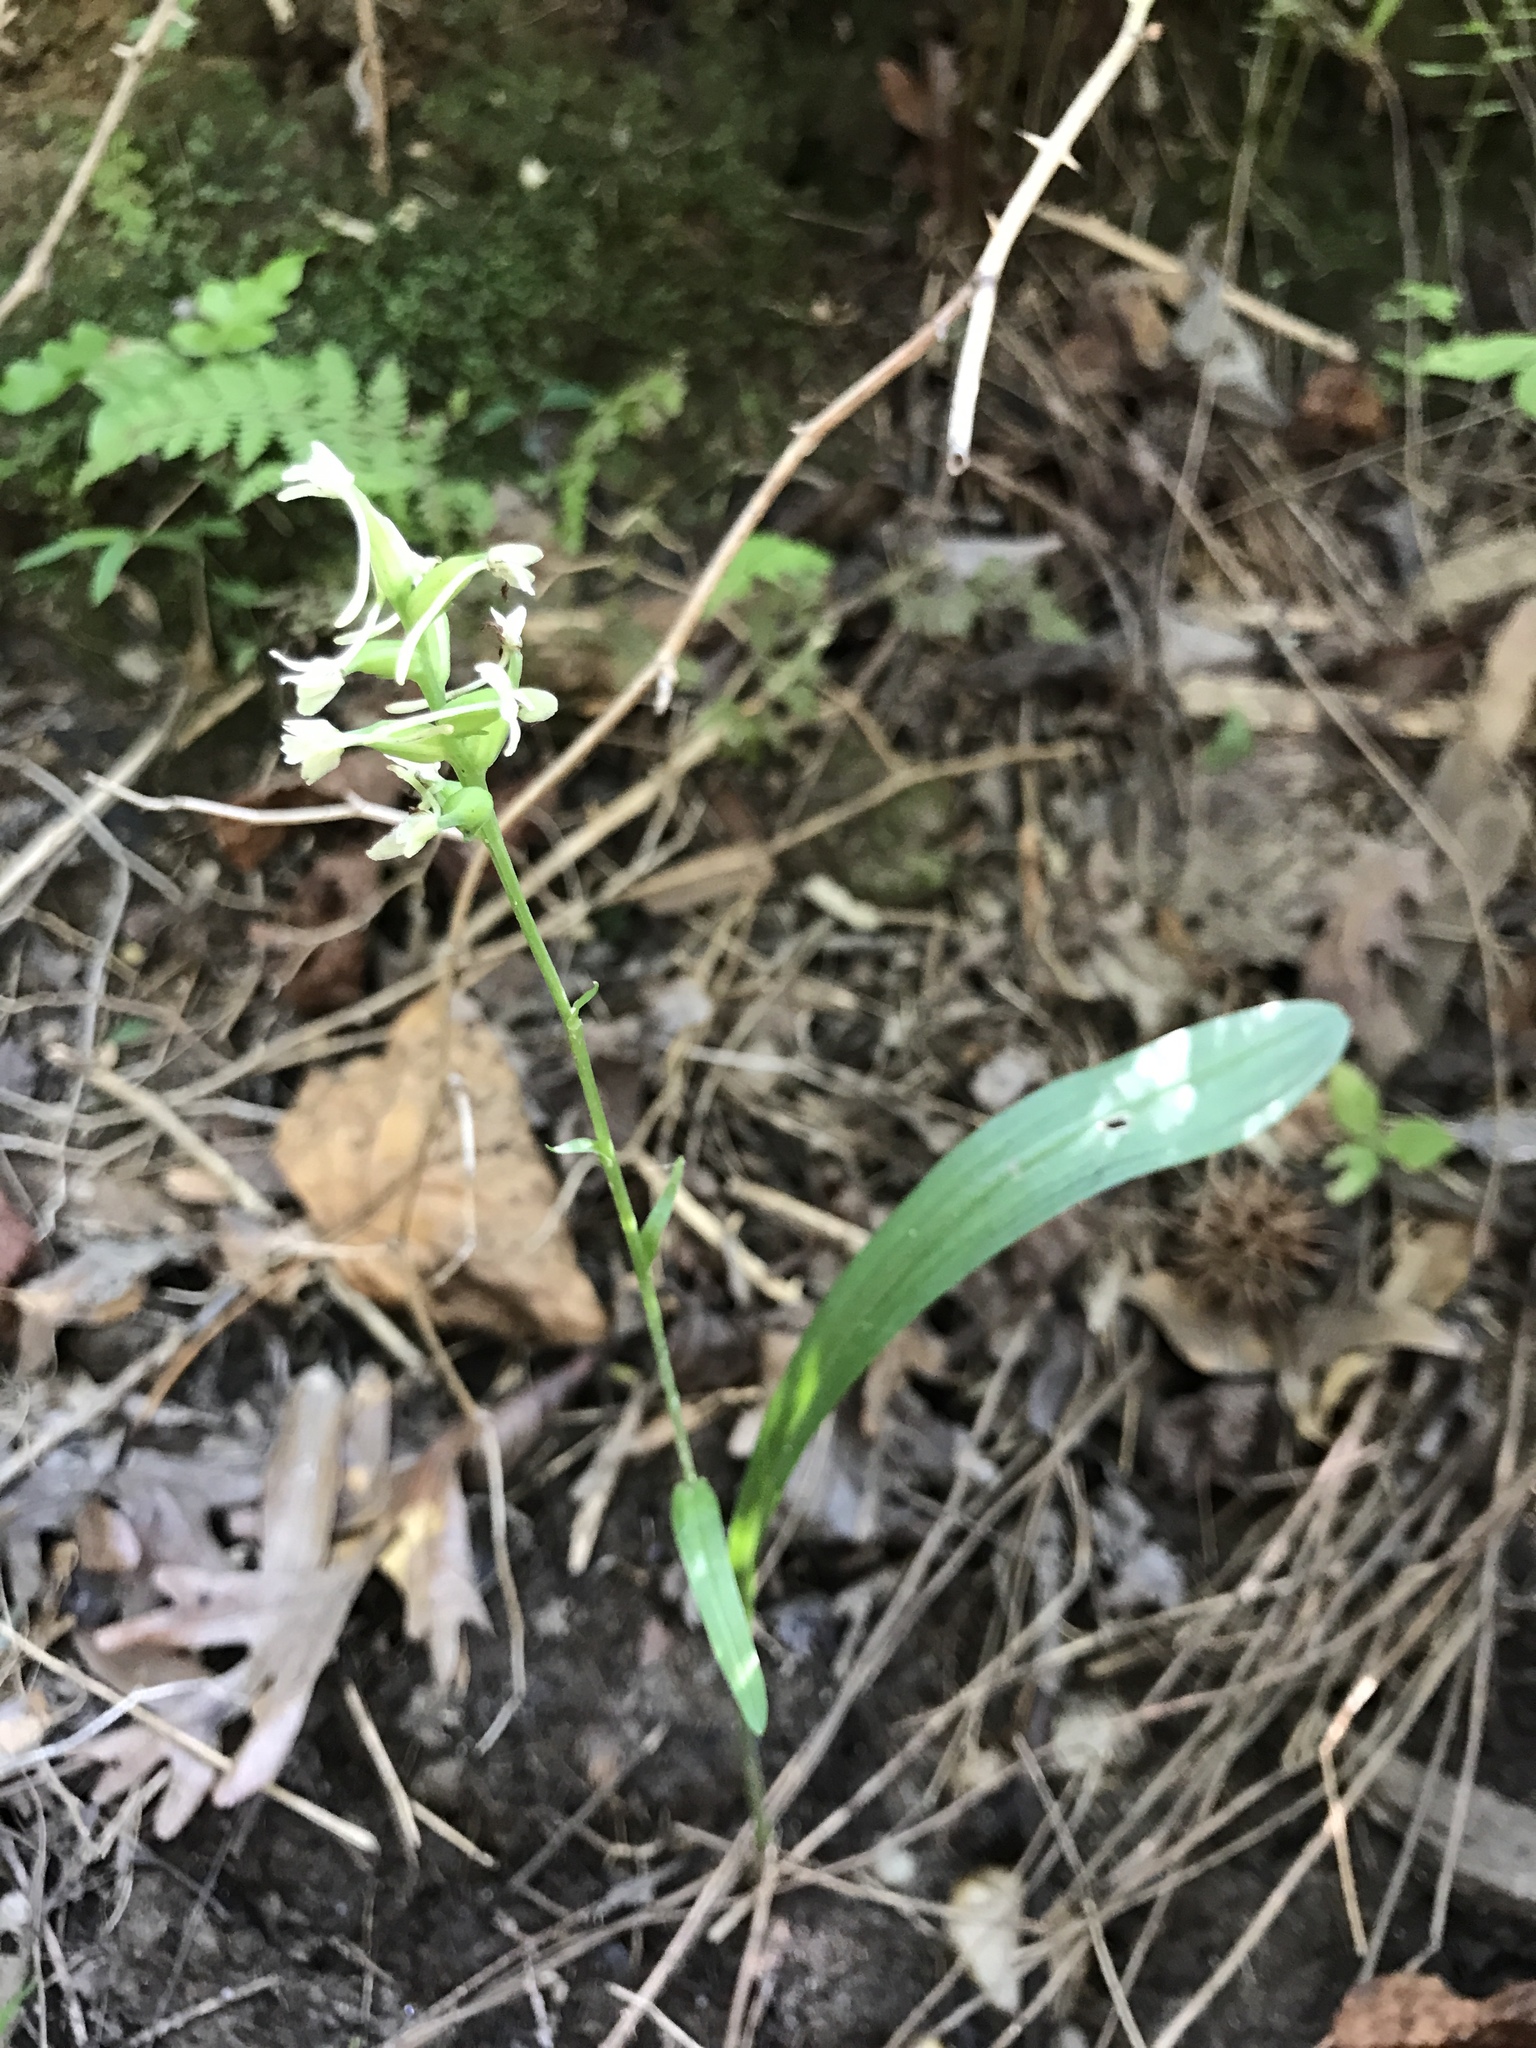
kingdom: Plantae
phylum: Tracheophyta
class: Liliopsida
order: Asparagales
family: Orchidaceae
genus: Platanthera
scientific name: Platanthera clavellata
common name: Club-spur orchid
